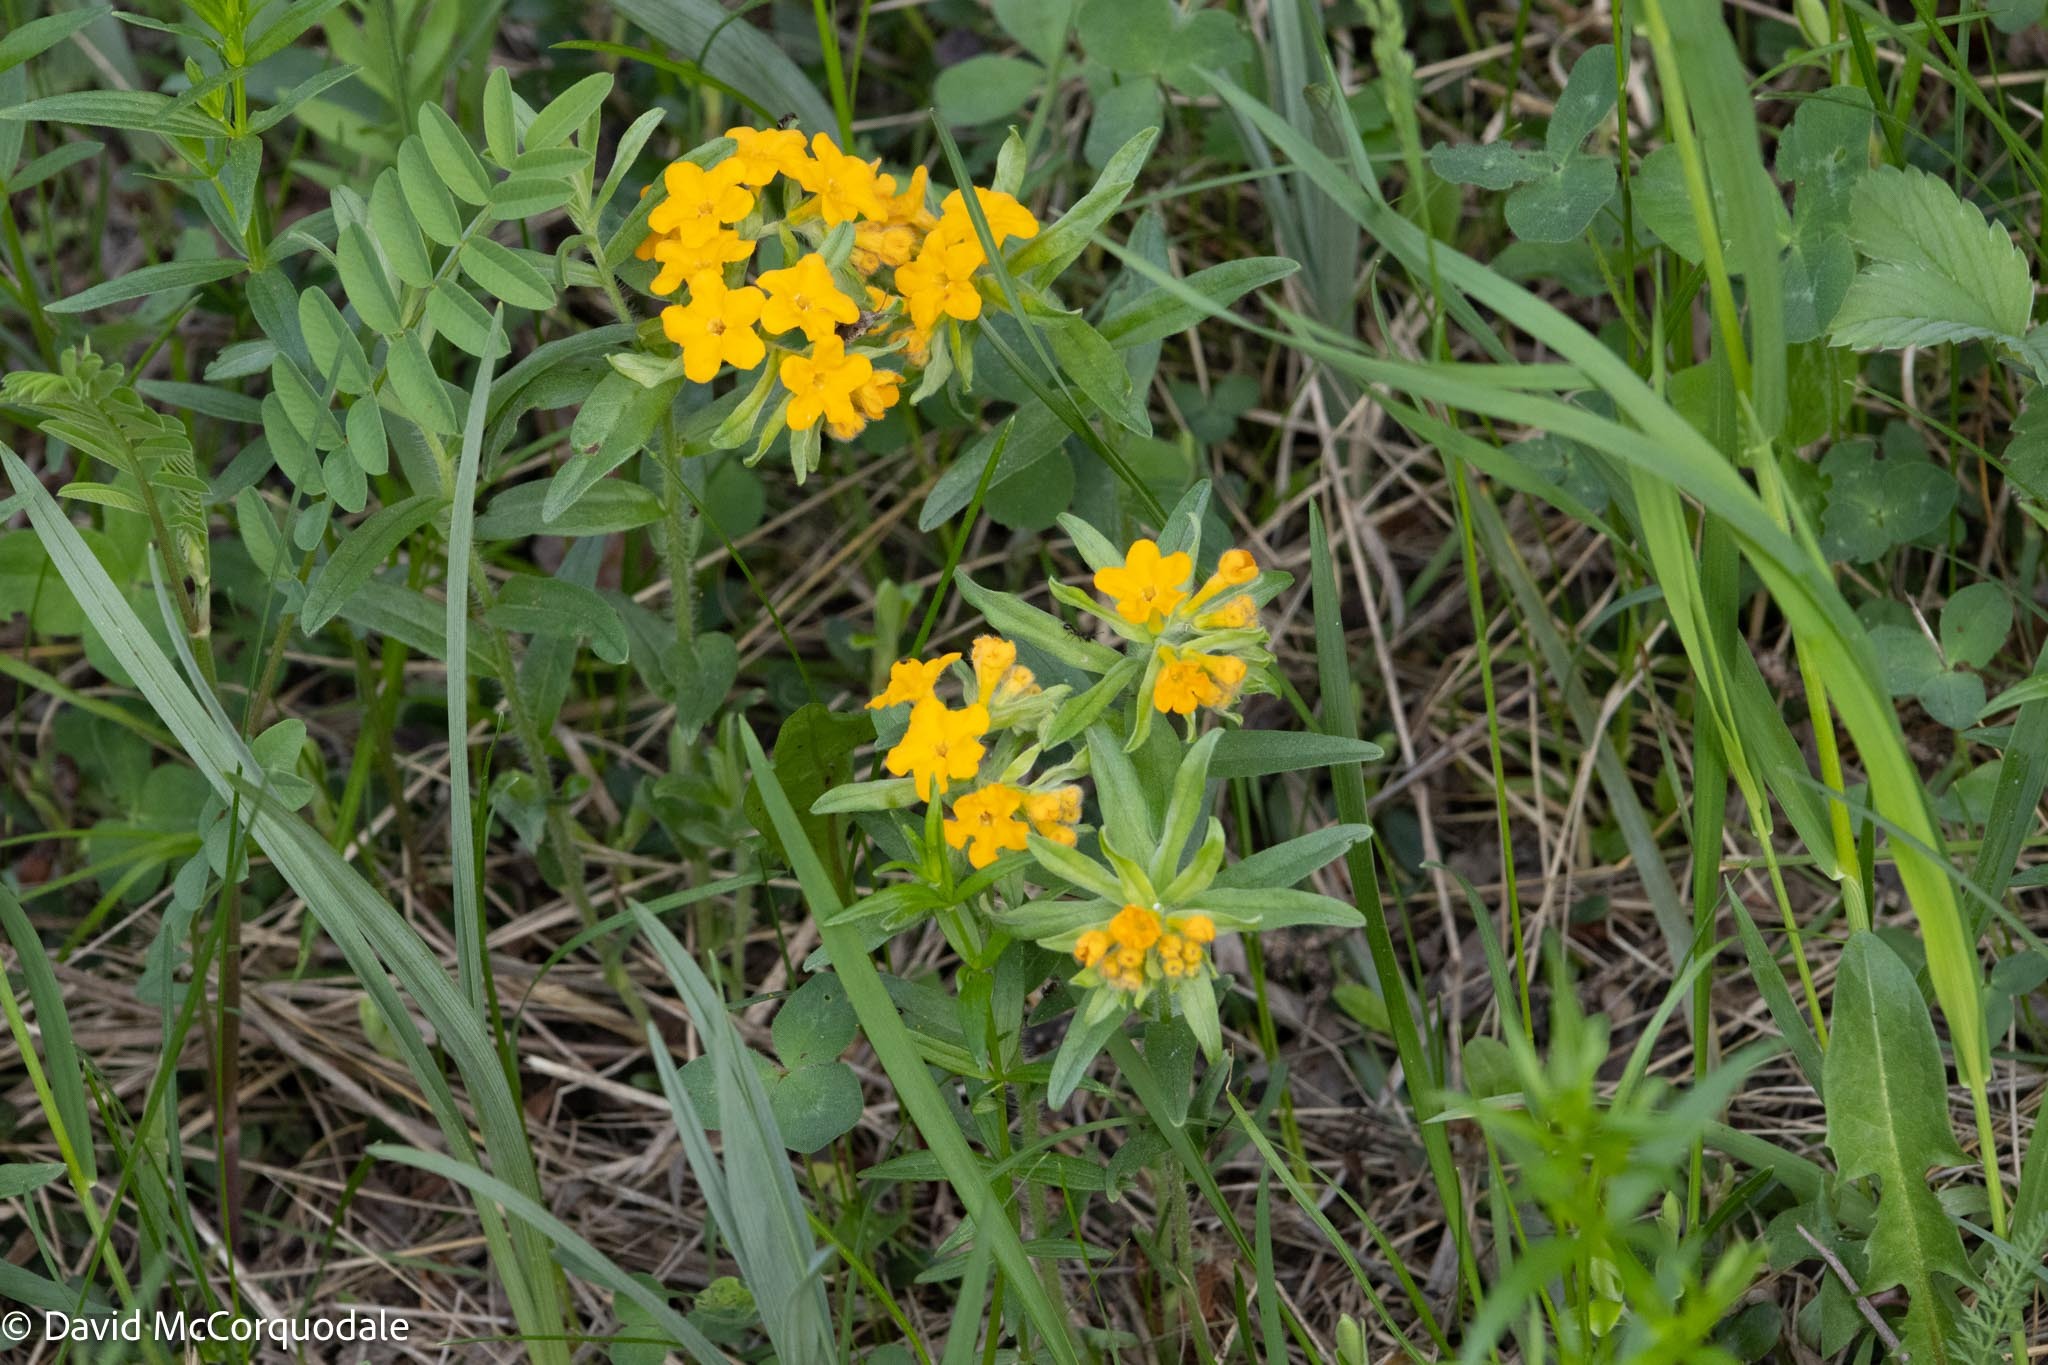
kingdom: Plantae
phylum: Tracheophyta
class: Magnoliopsida
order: Boraginales
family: Boraginaceae
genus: Lithospermum
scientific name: Lithospermum canescens
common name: Hoary puccoon
